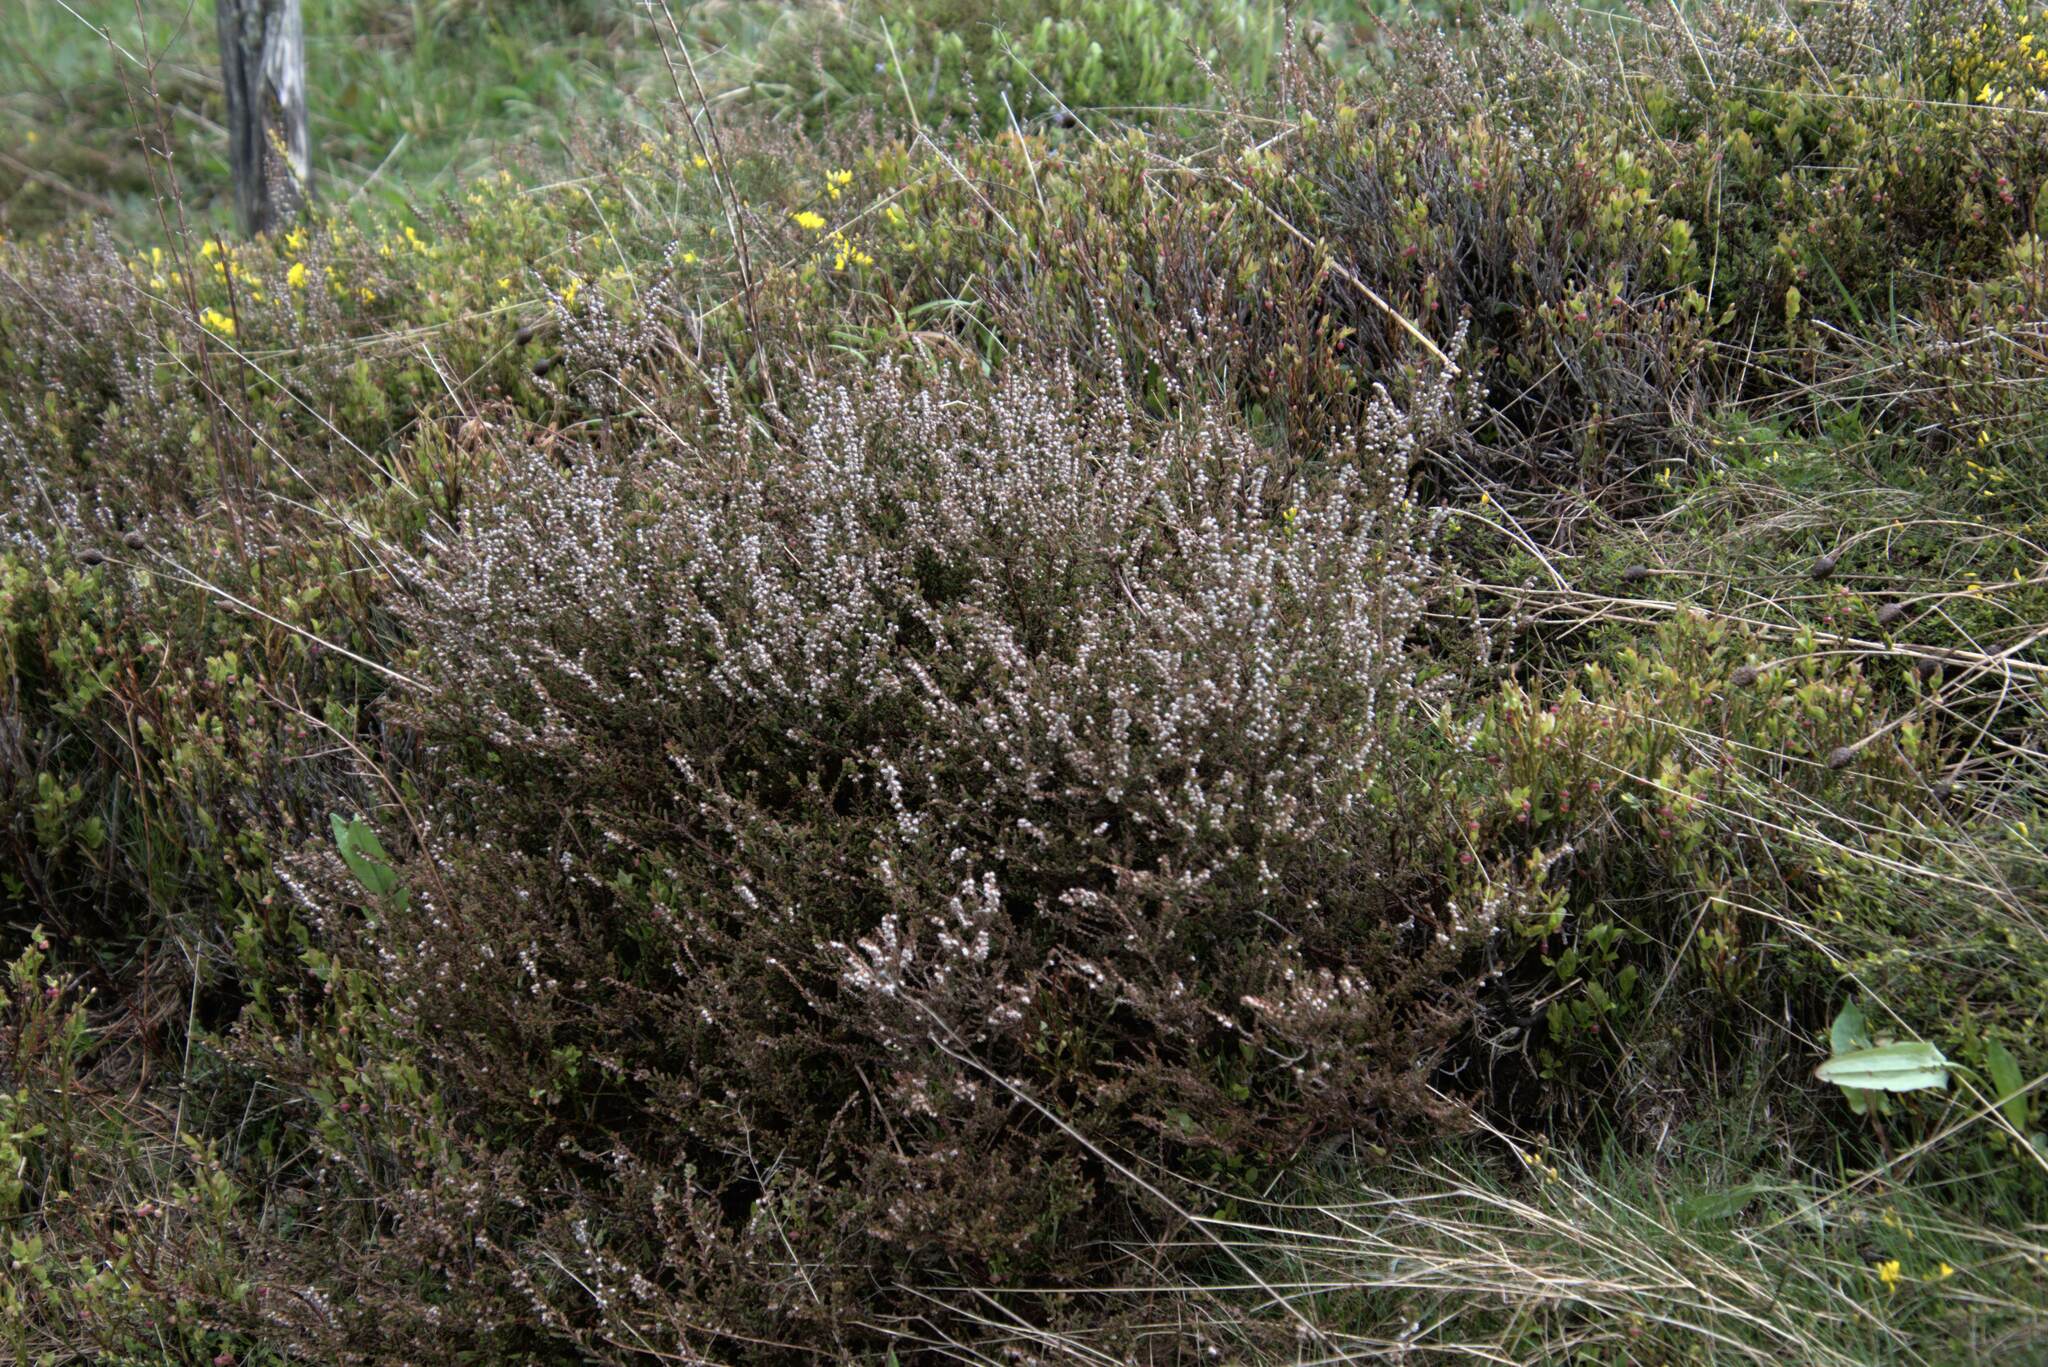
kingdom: Plantae
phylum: Tracheophyta
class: Magnoliopsida
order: Ericales
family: Ericaceae
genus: Calluna
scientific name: Calluna vulgaris
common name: Heather
